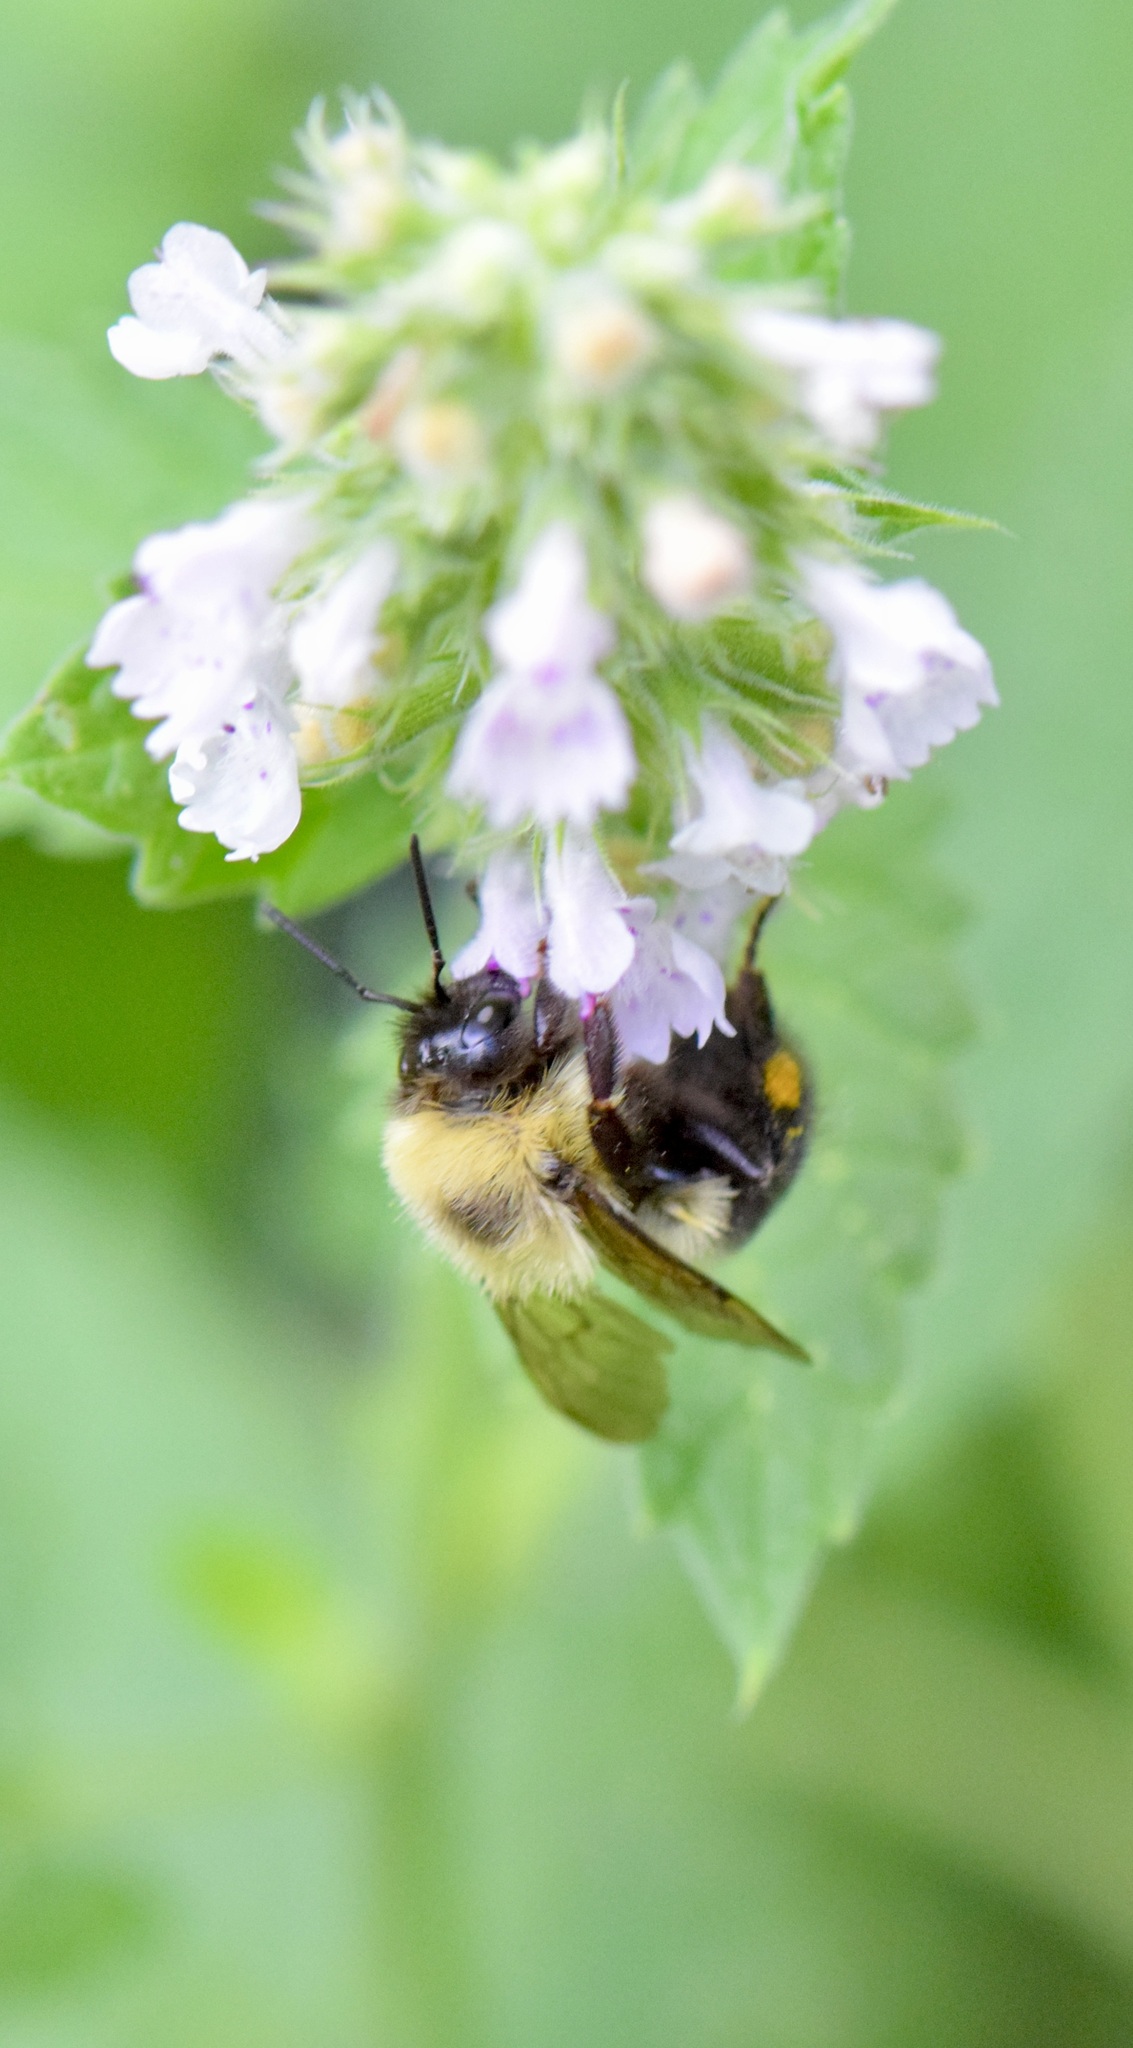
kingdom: Animalia
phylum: Arthropoda
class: Insecta
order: Hymenoptera
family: Apidae
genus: Bombus
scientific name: Bombus bimaculatus
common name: Two-spotted bumble bee
